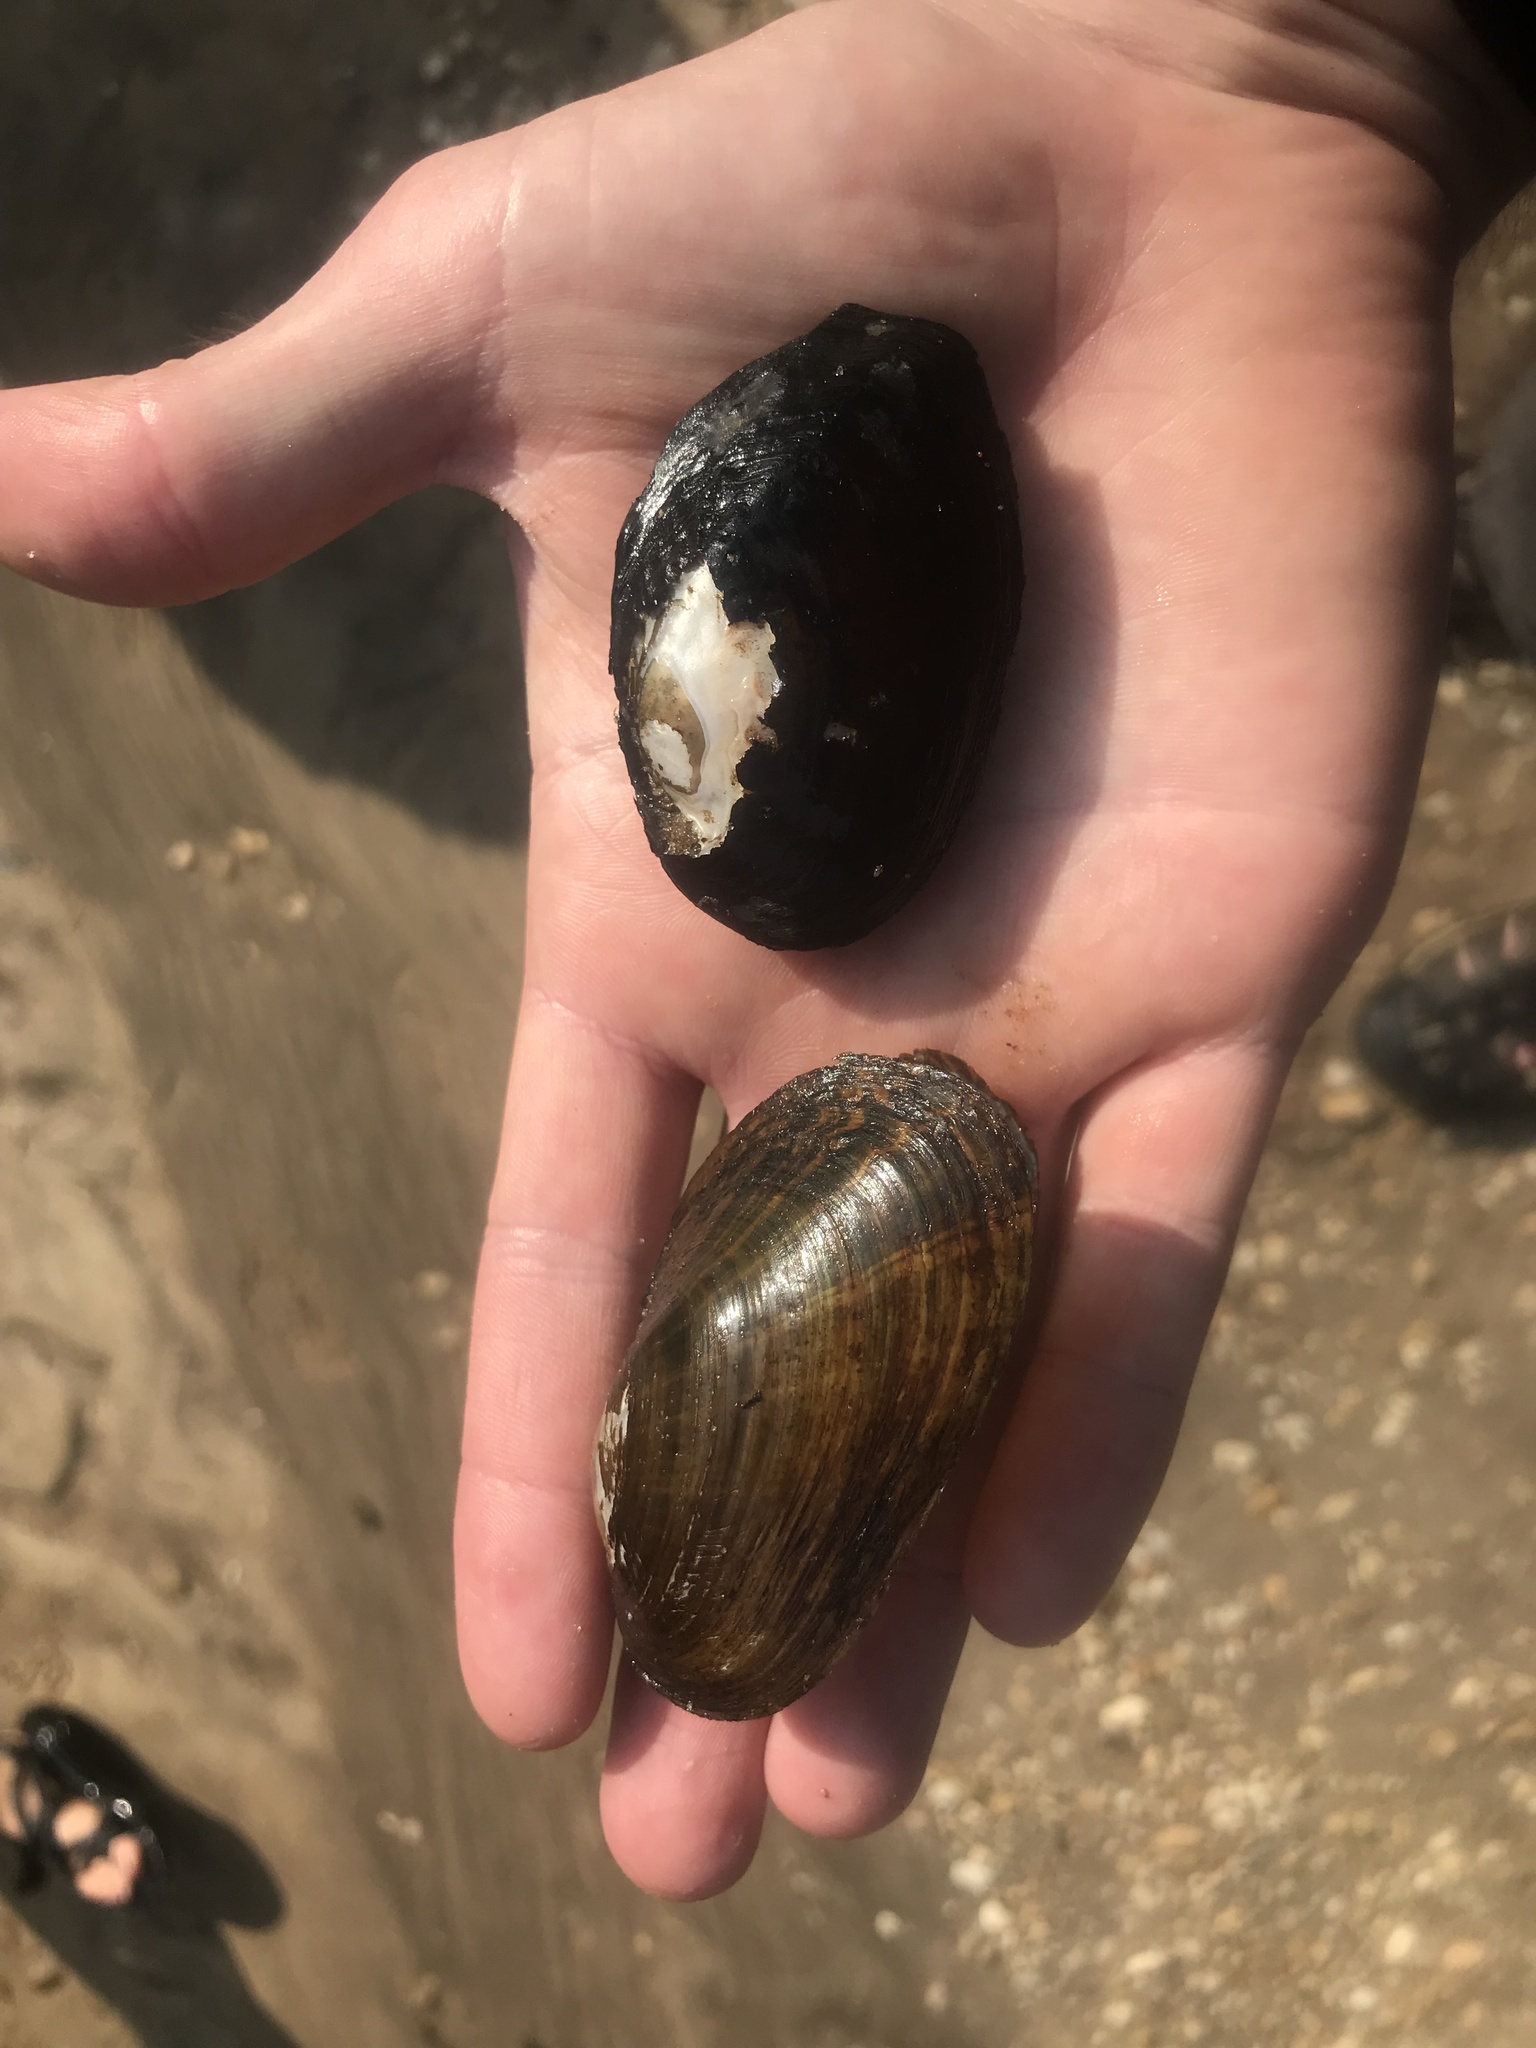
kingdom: Animalia
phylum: Mollusca
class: Bivalvia
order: Unionida
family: Unionidae
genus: Villosa
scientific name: Villosa vibex
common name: Southern rainbow
